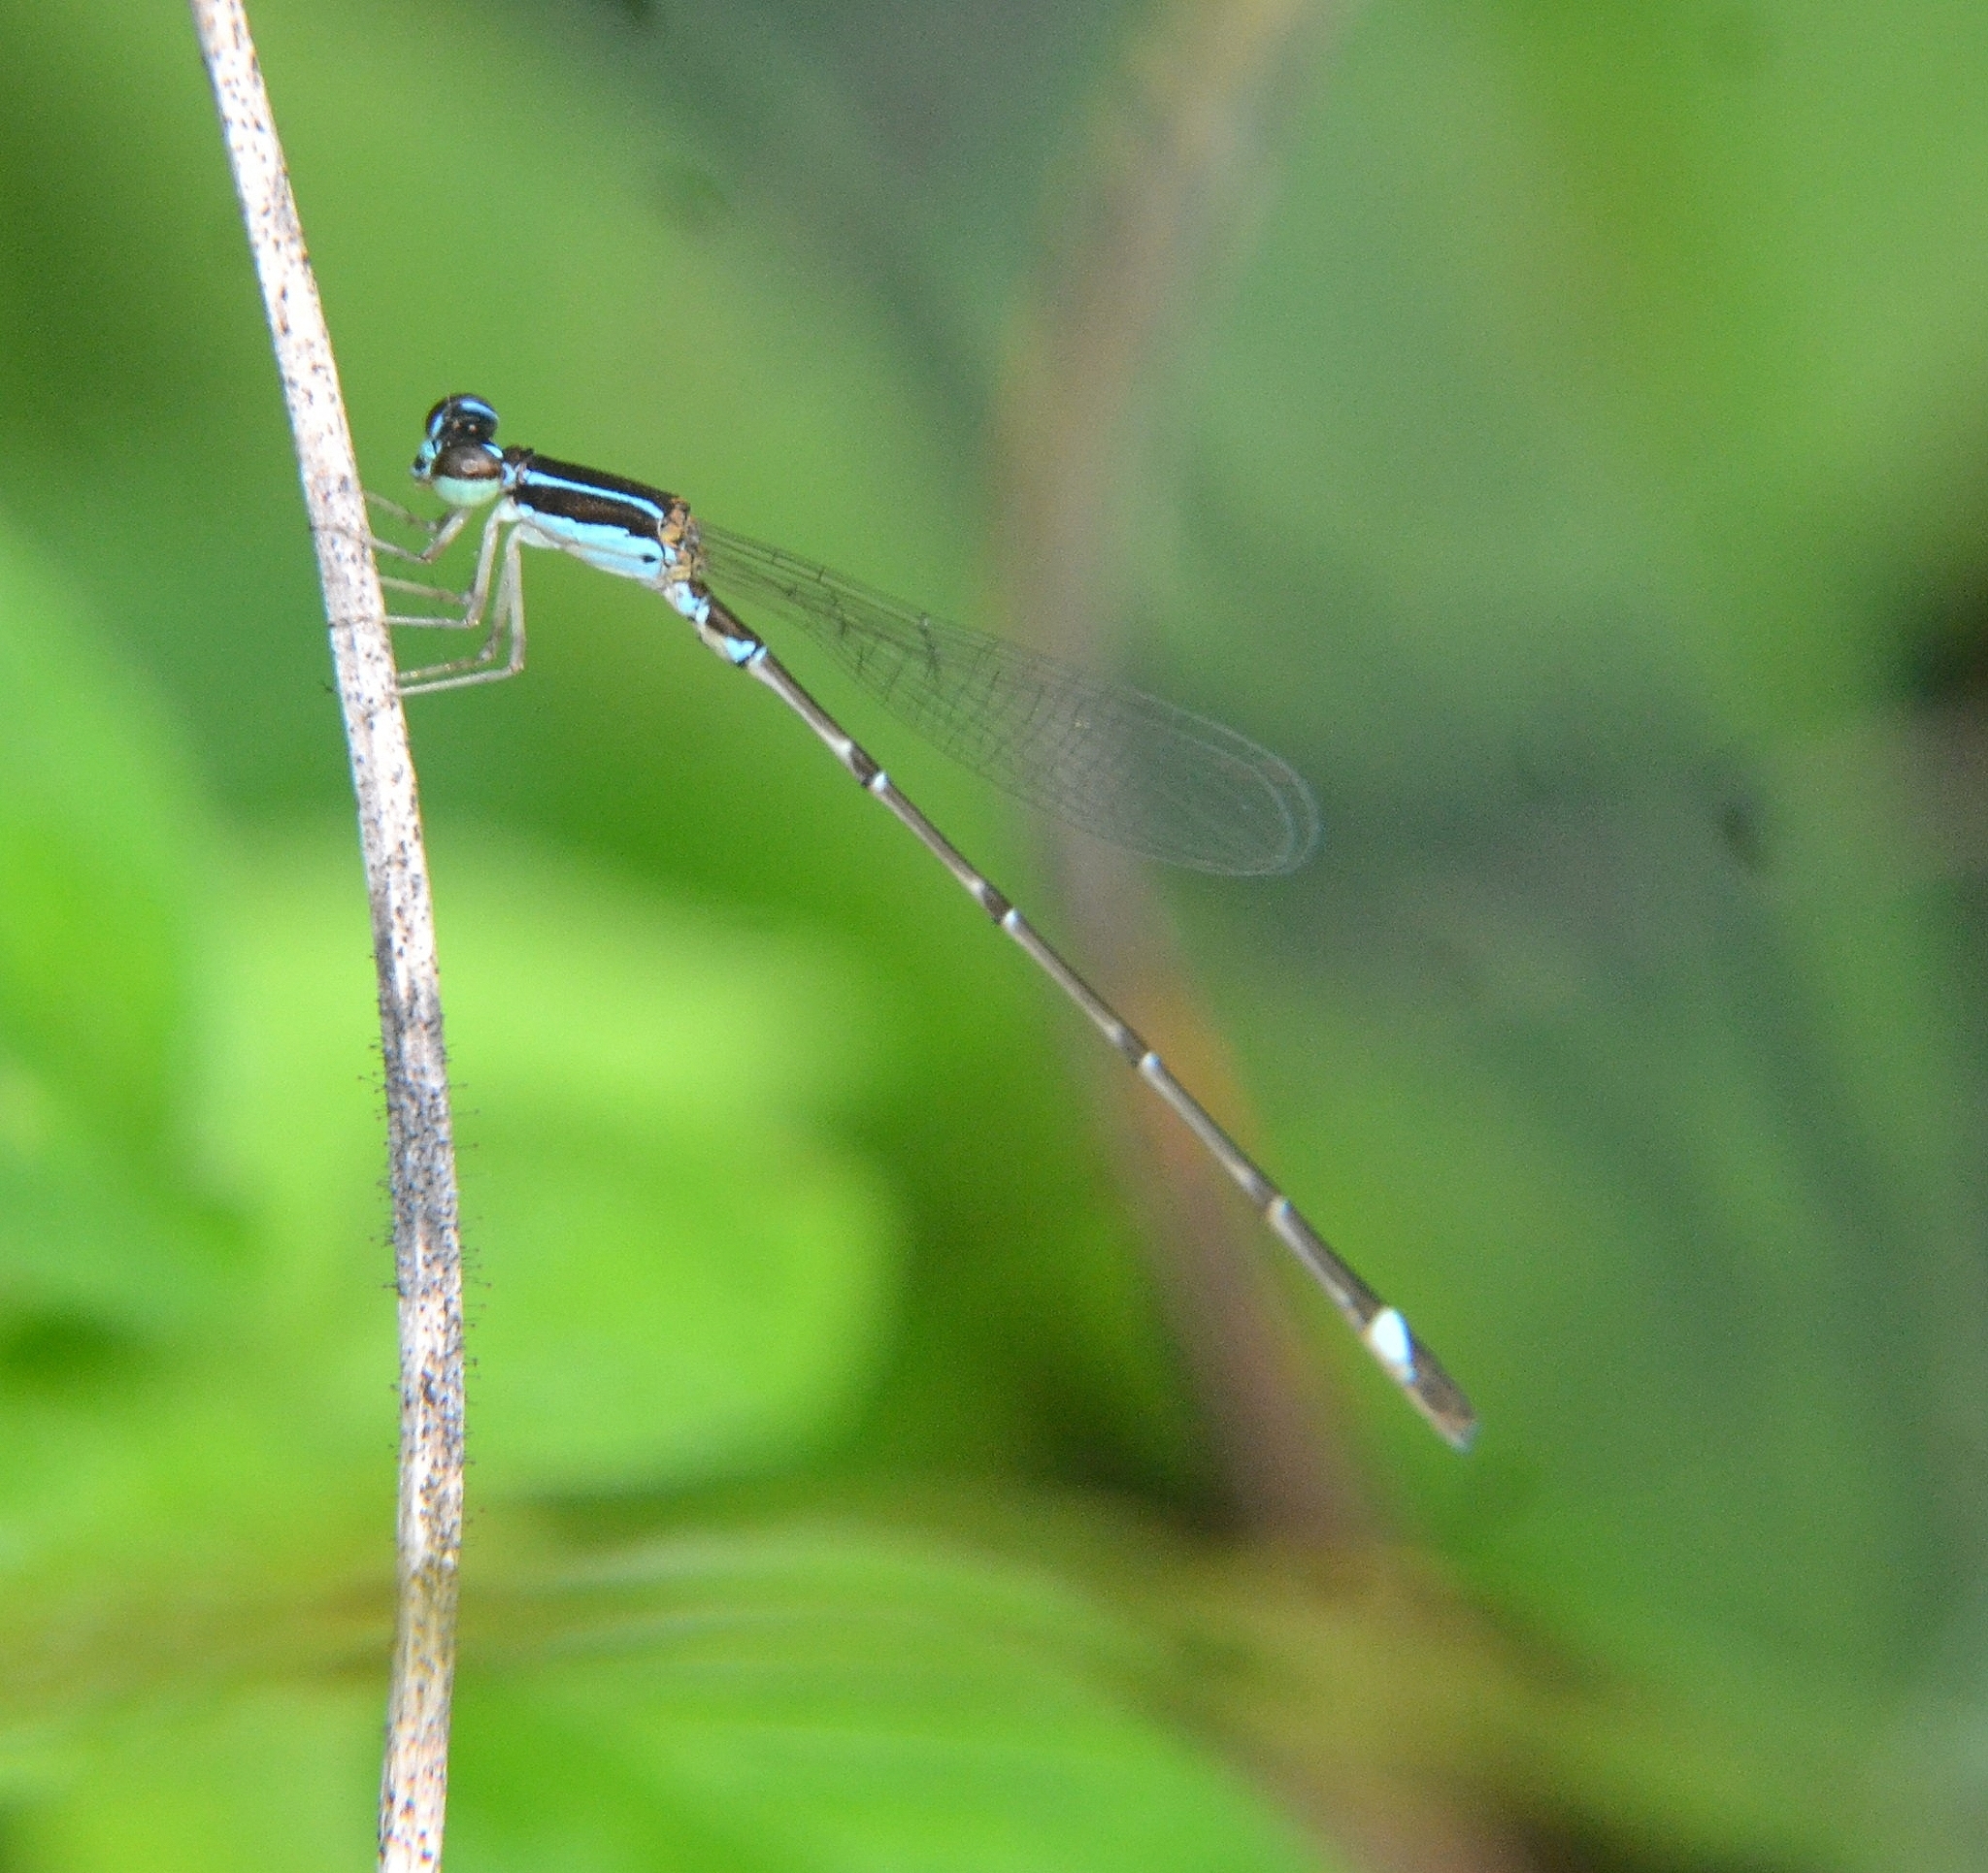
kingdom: Animalia
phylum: Arthropoda
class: Insecta
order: Odonata
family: Coenagrionidae
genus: Mortonagrion
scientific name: Mortonagrion varralli
